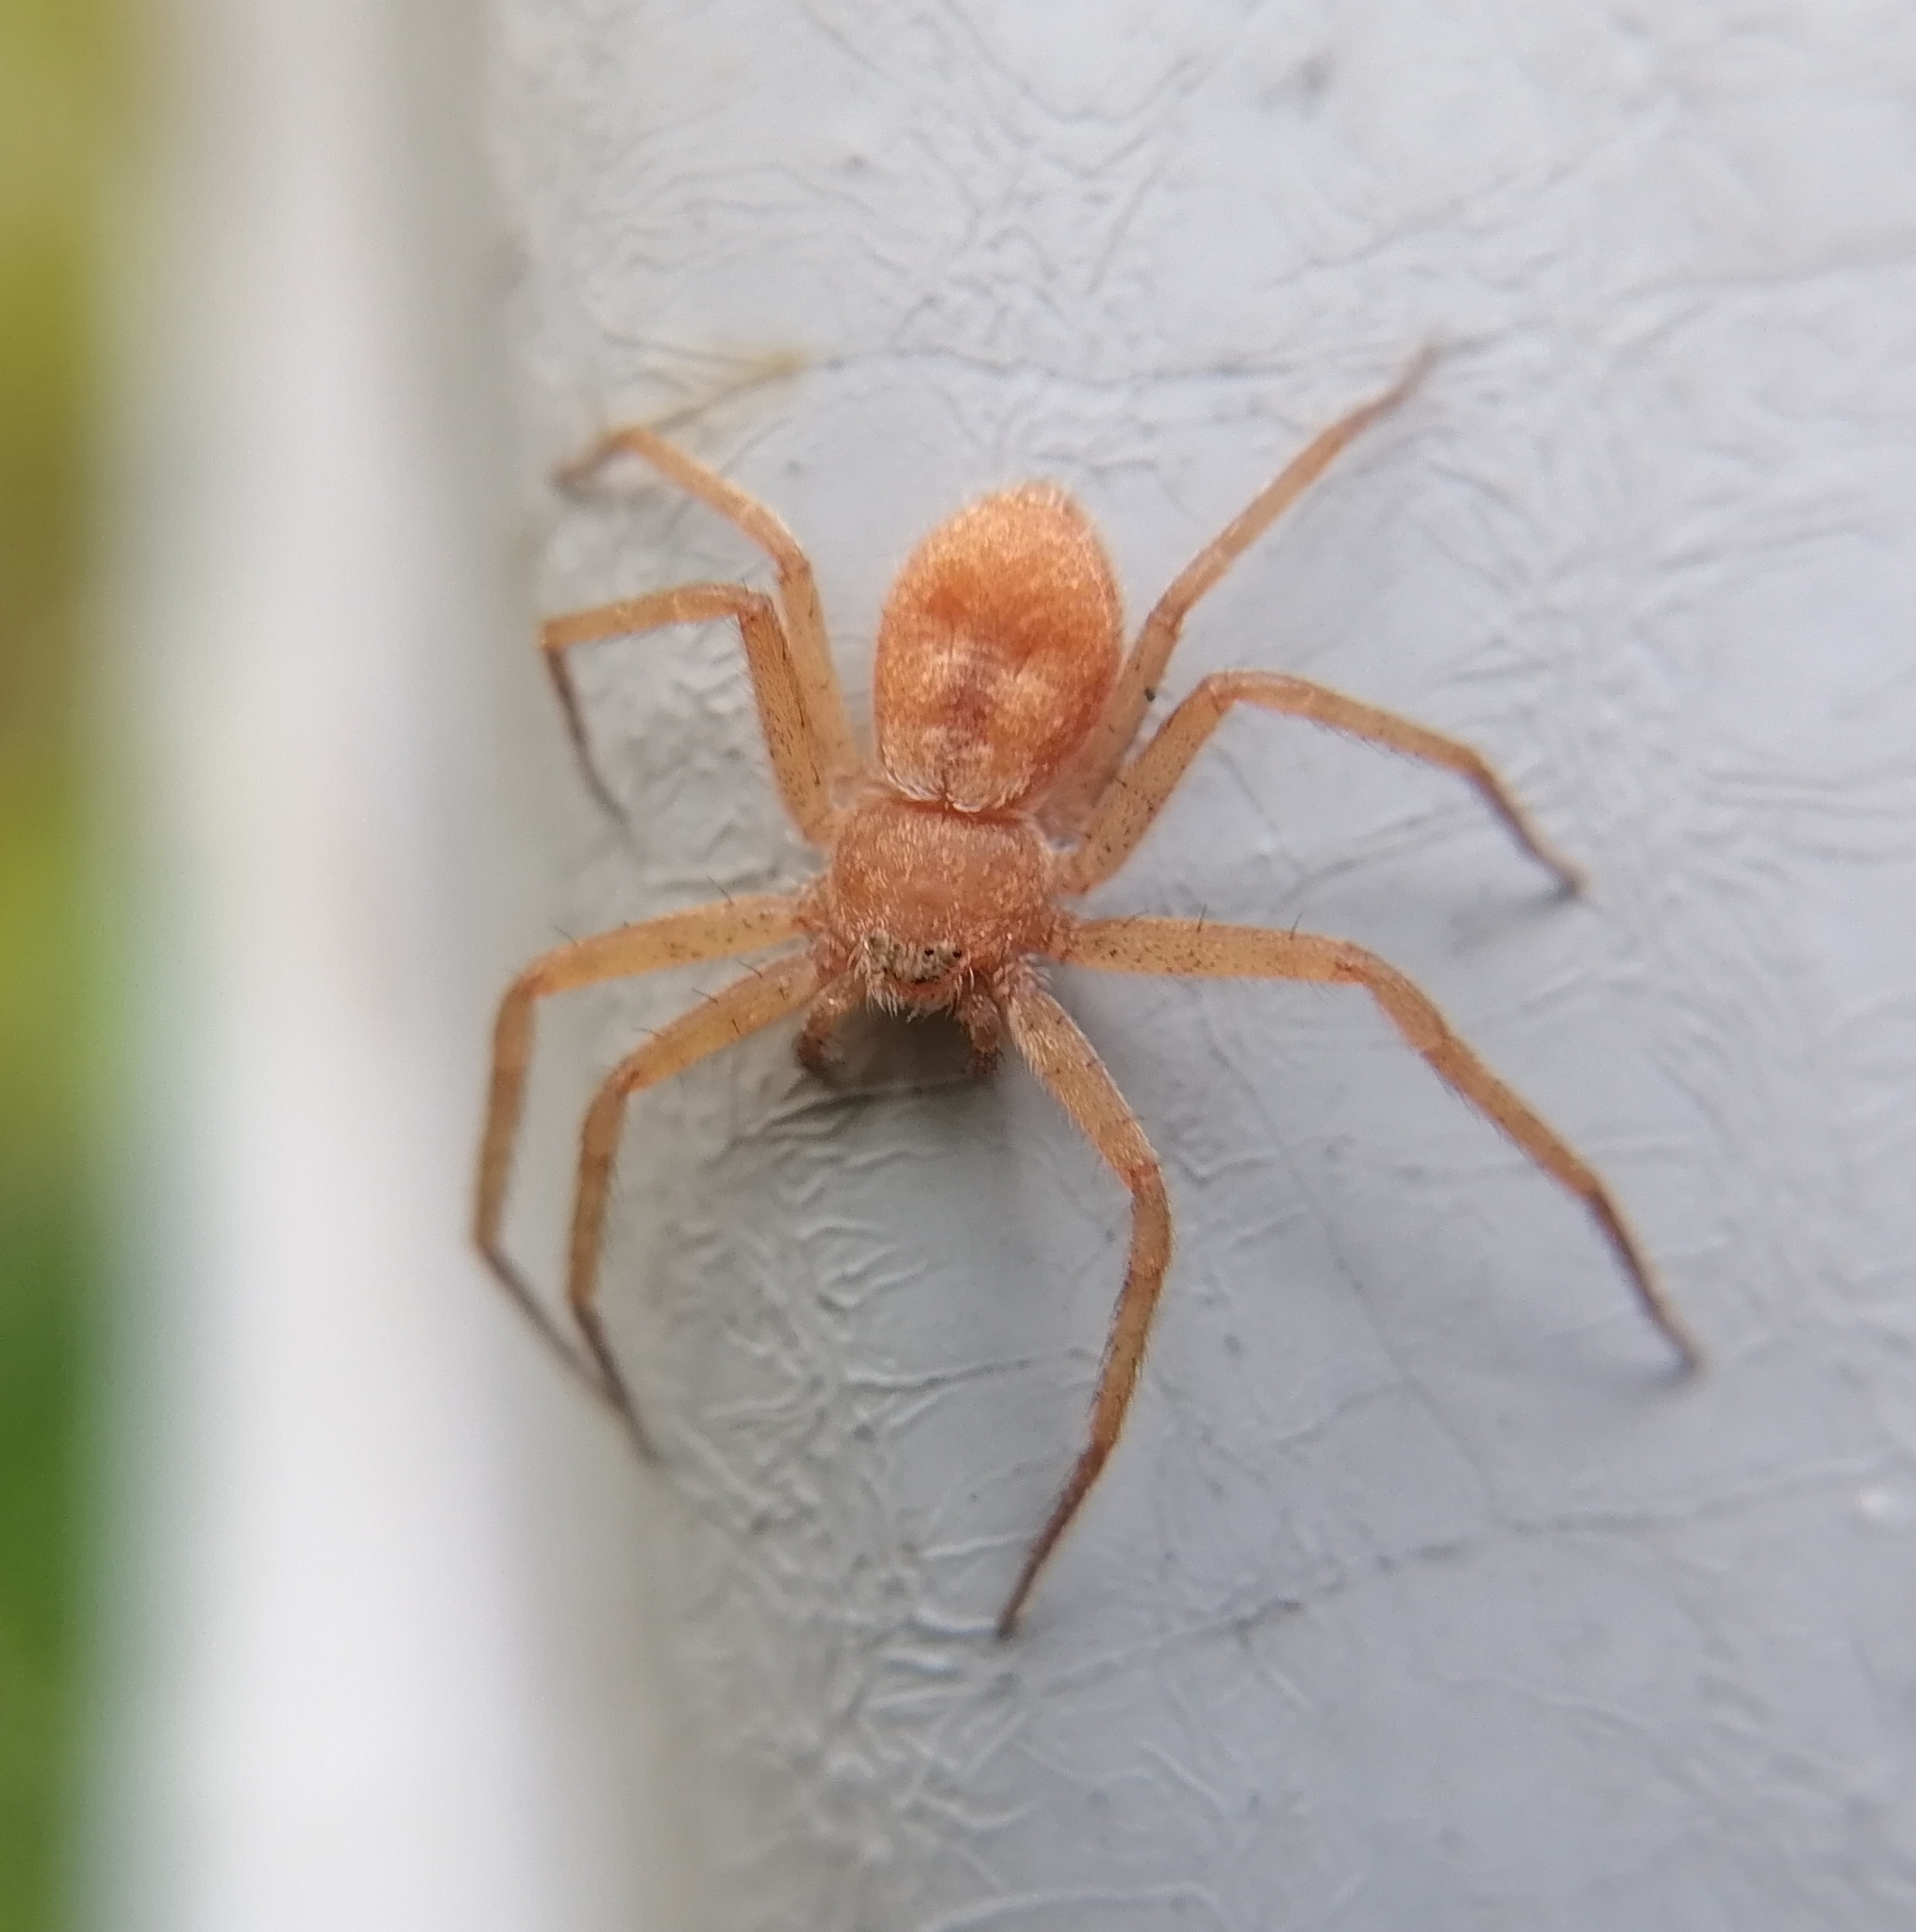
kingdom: Animalia
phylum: Arthropoda
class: Arachnida
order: Araneae
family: Philodromidae
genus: Philodromus
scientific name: Philodromus fuscomarginatus
